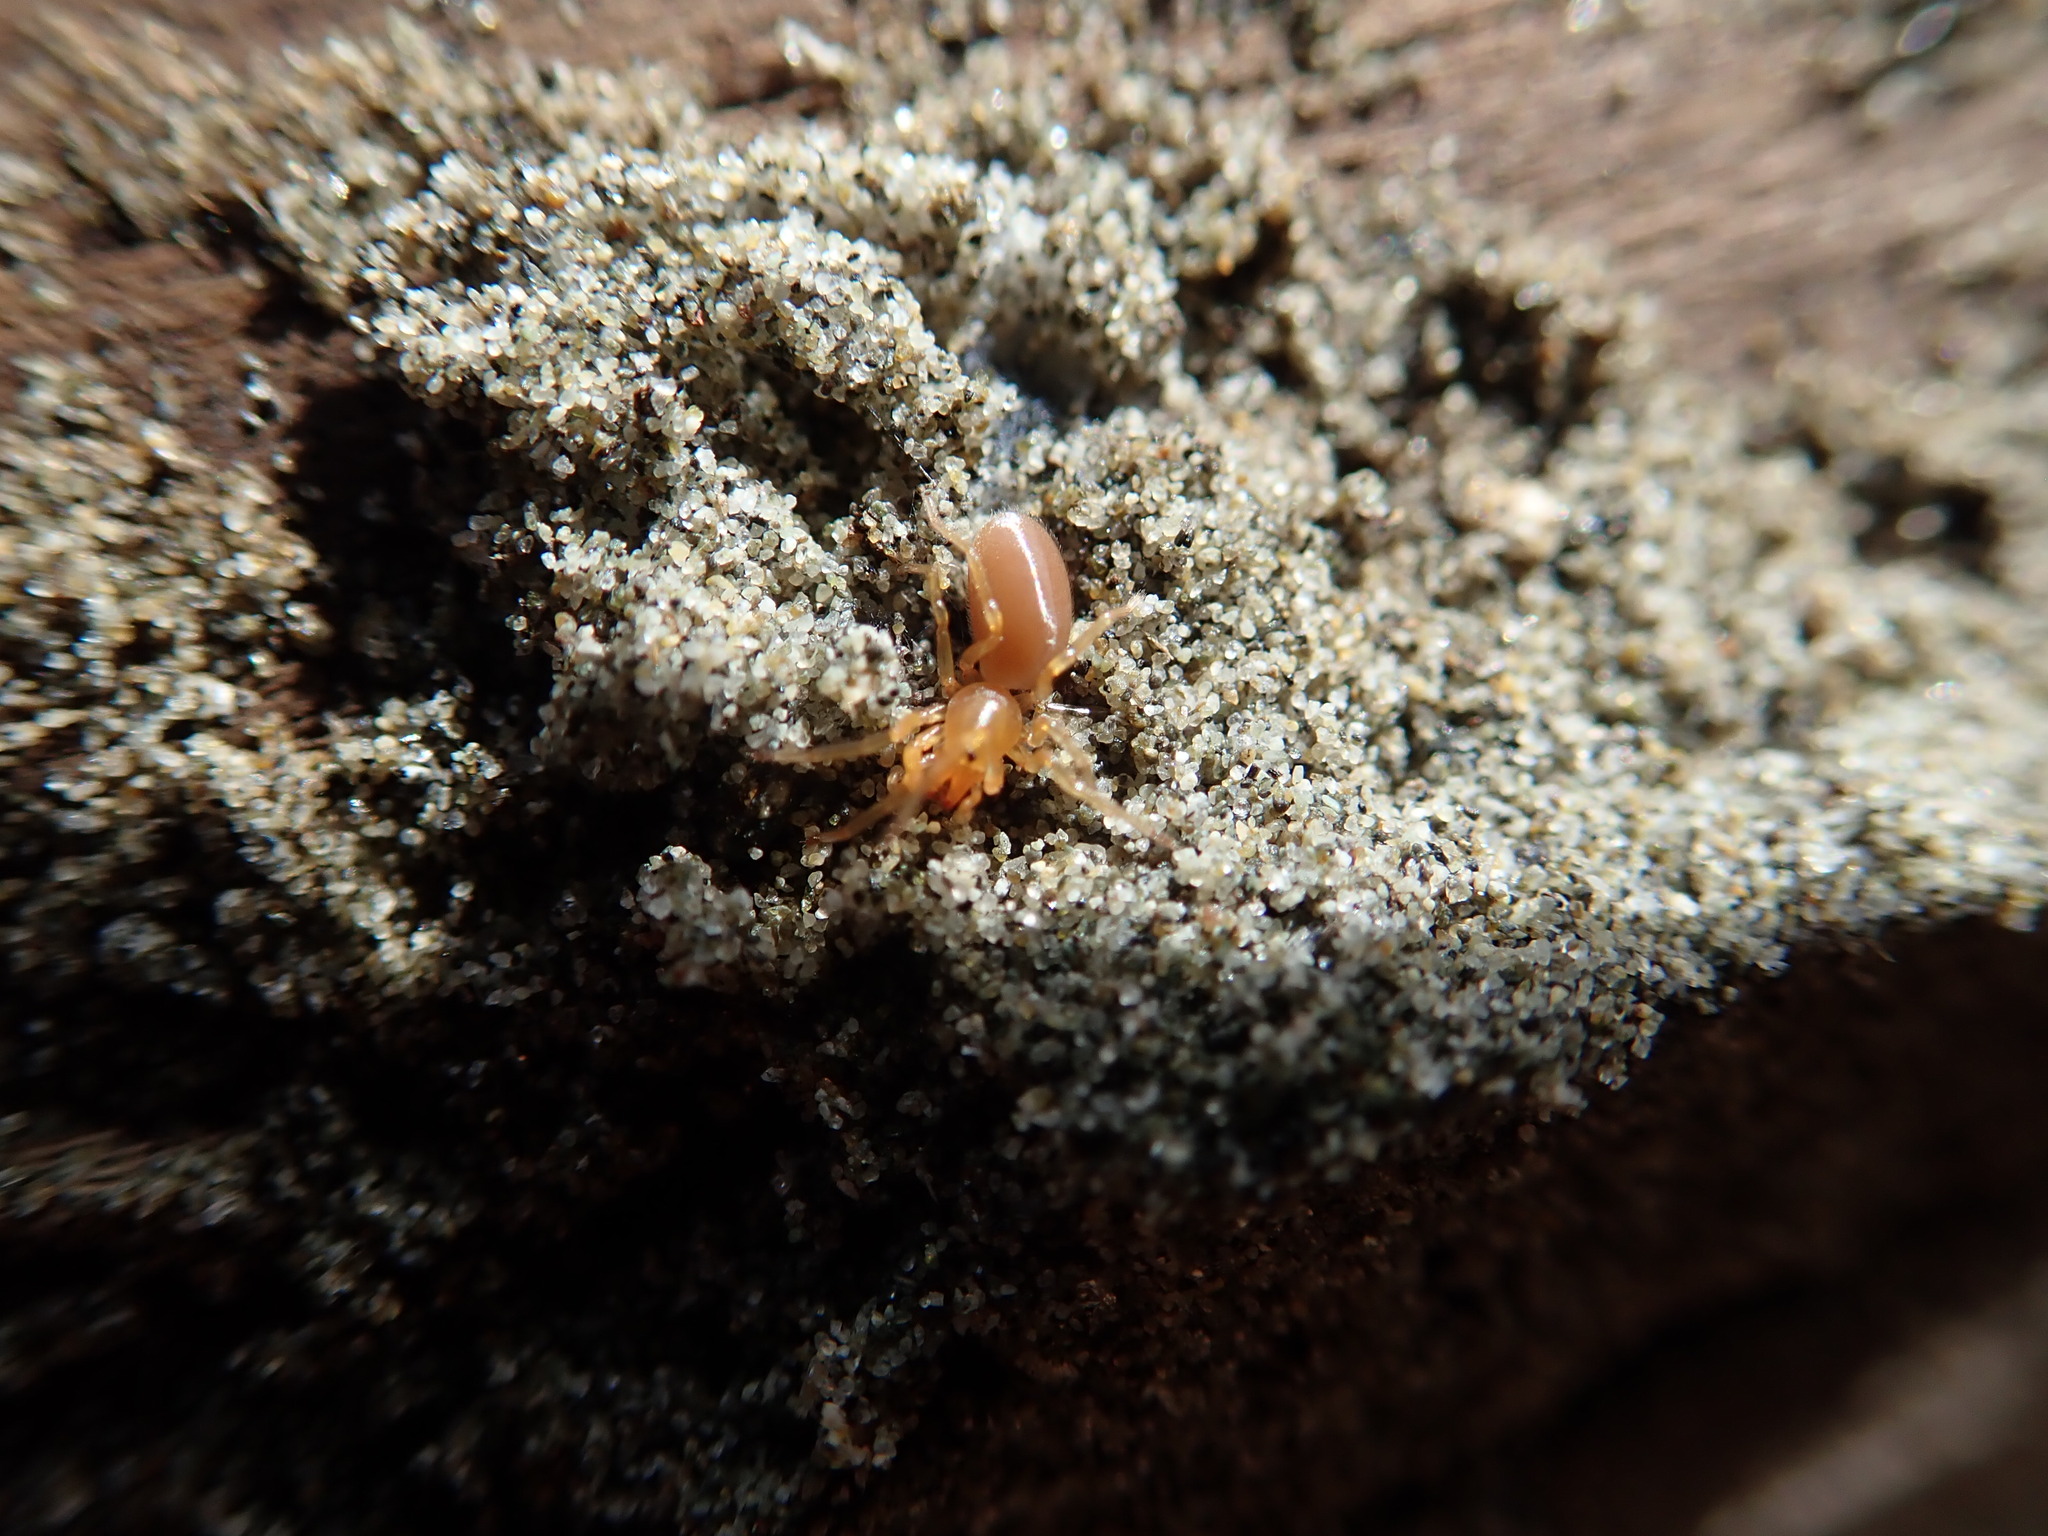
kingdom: Animalia
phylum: Arthropoda
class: Arachnida
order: Araneae
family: Dysderidae
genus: Dysdera
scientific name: Dysdera crocata
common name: Woodlouse spider
